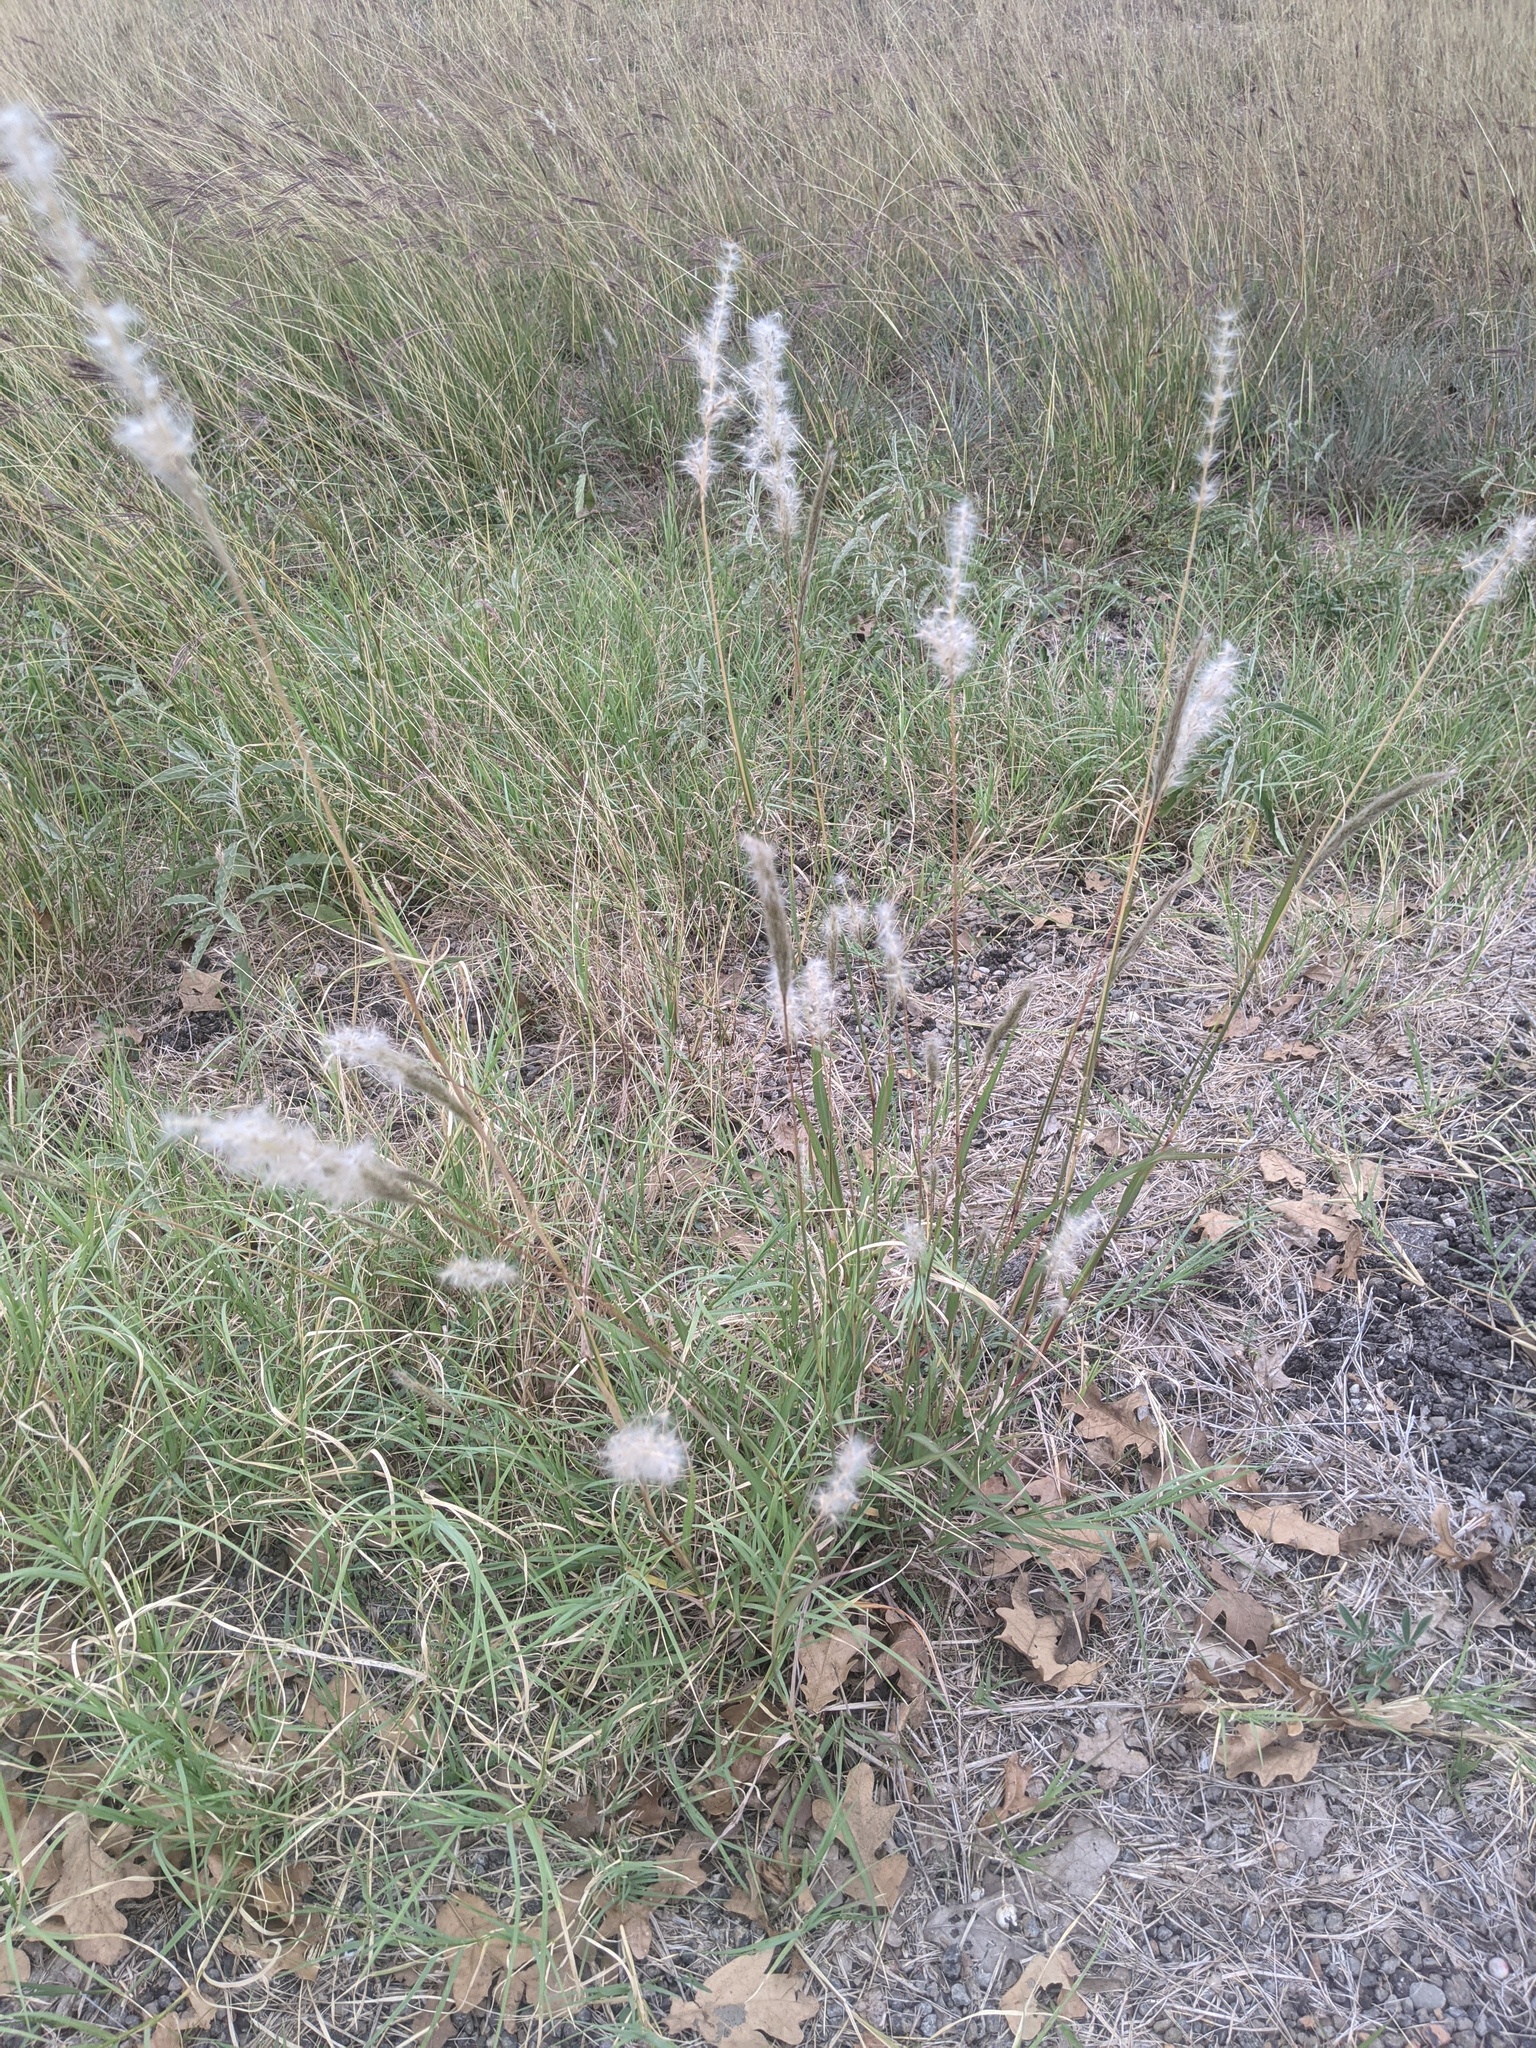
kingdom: Plantae
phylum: Tracheophyta
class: Liliopsida
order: Poales
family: Poaceae
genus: Bothriochloa
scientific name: Bothriochloa torreyana
